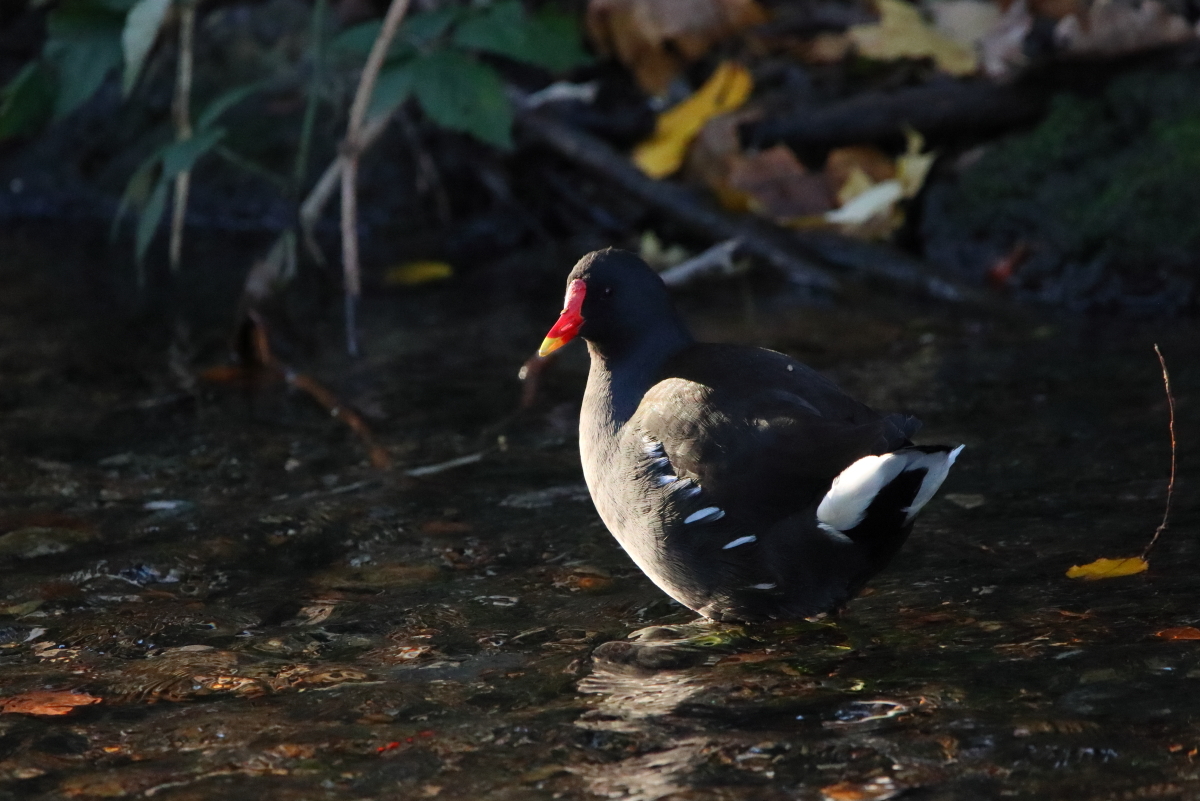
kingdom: Animalia
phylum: Chordata
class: Aves
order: Gruiformes
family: Rallidae
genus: Gallinula
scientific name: Gallinula chloropus
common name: Common moorhen
